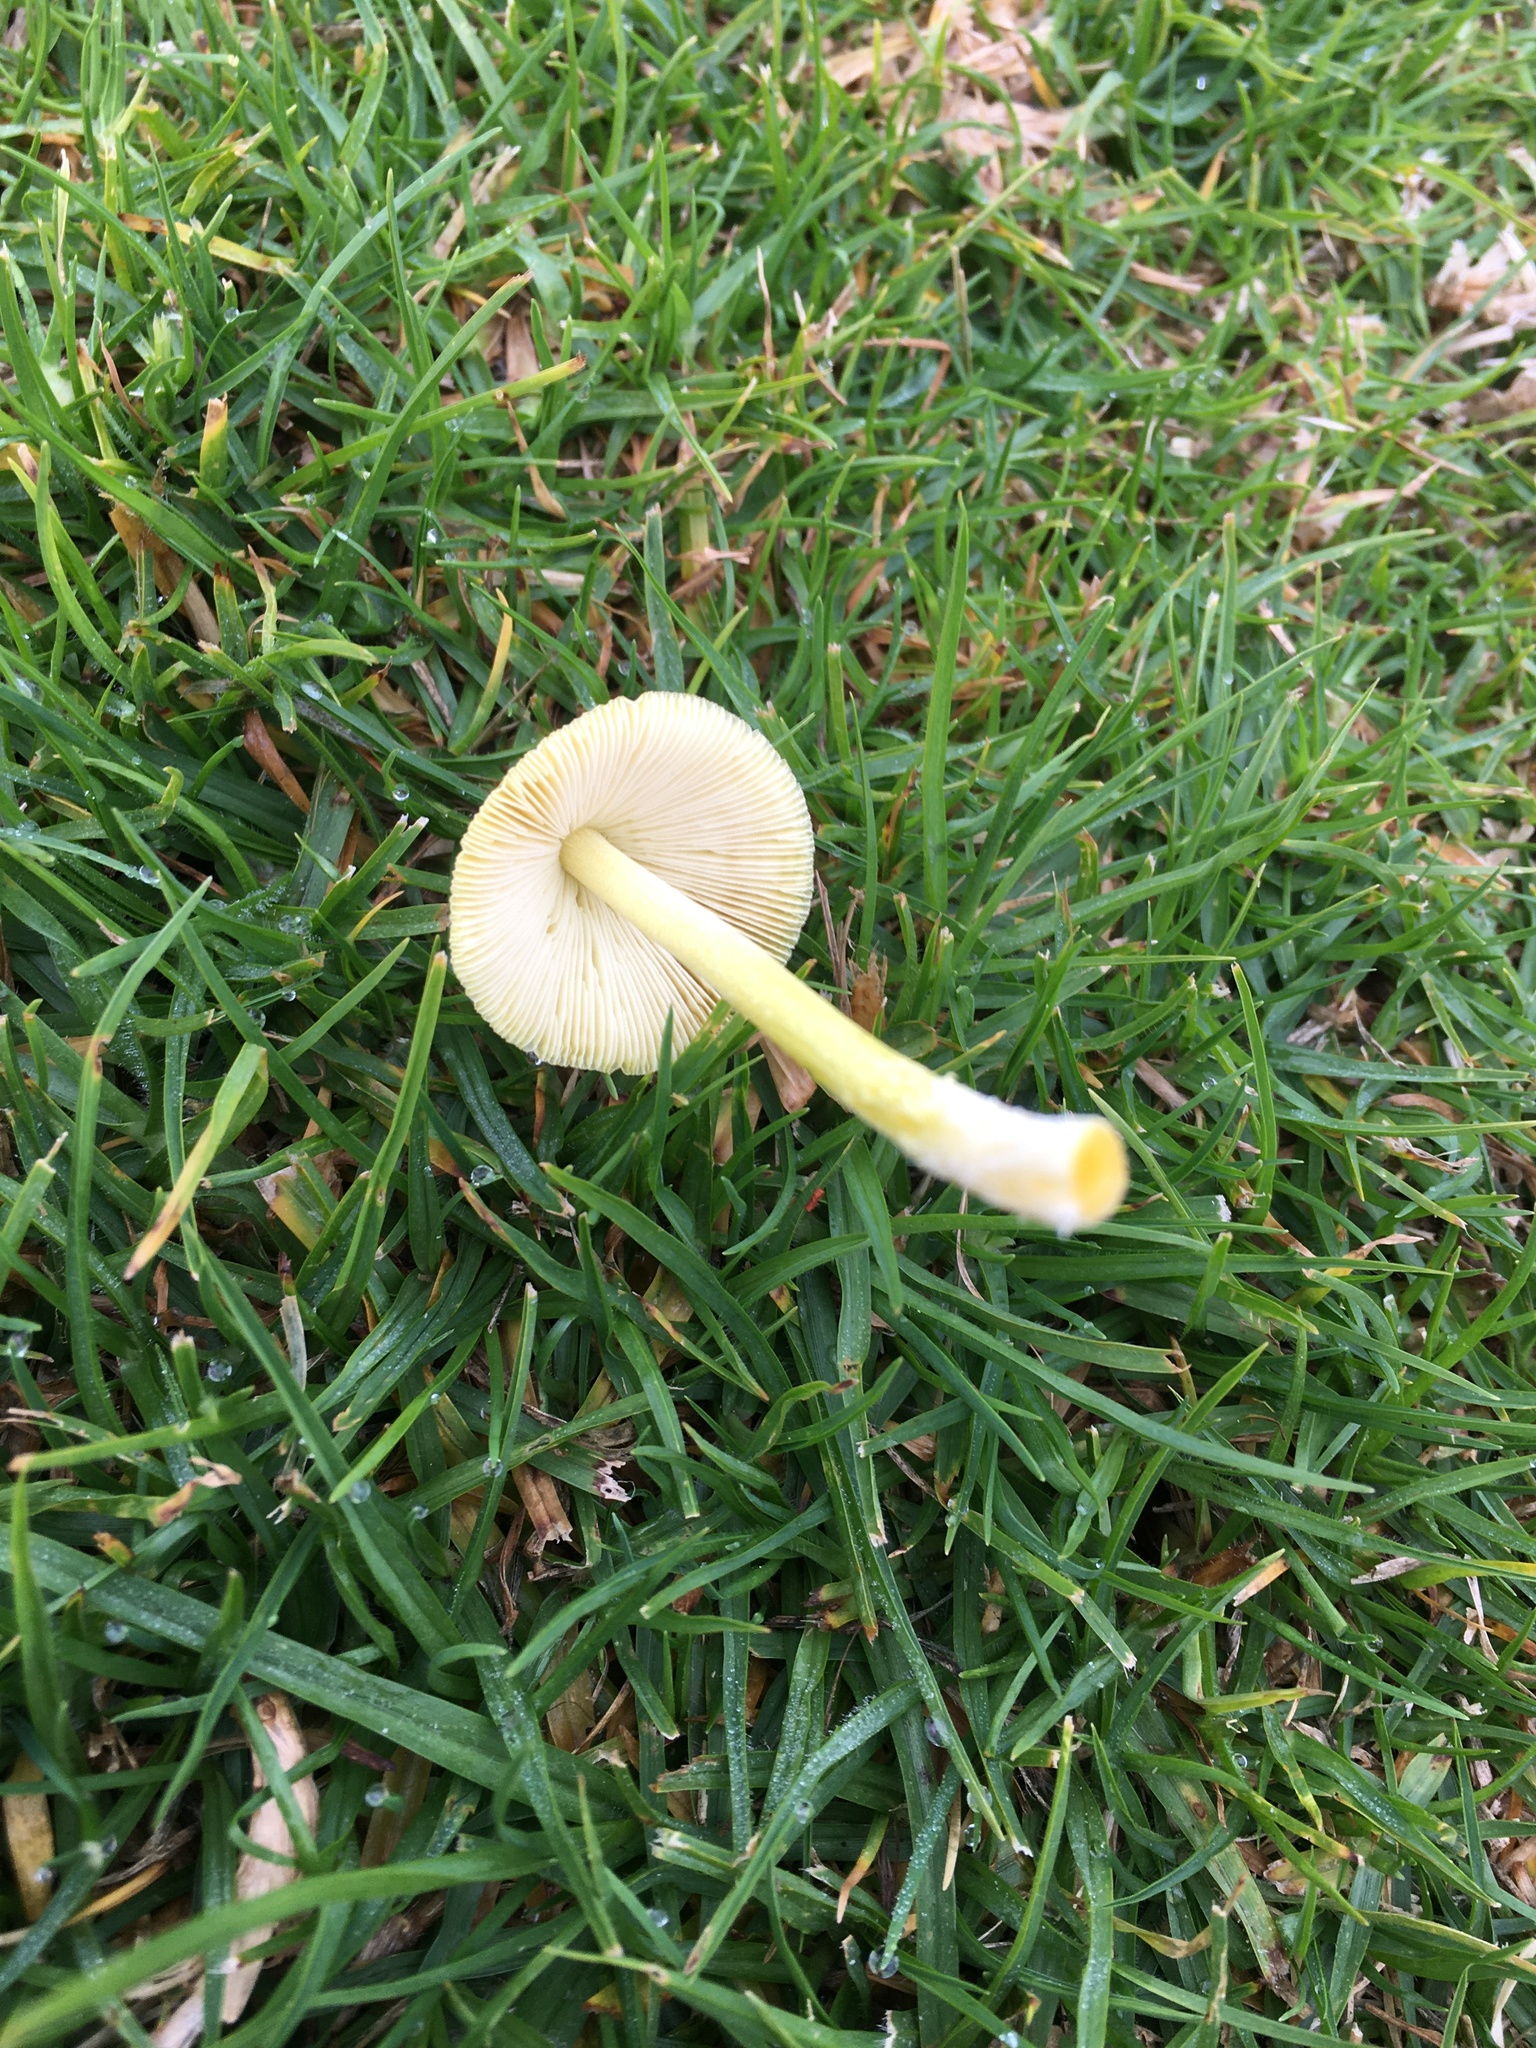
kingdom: Fungi
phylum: Basidiomycota
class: Agaricomycetes
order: Agaricales
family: Bolbitiaceae
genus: Bolbitius
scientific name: Bolbitius titubans
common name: Yellow fieldcap
